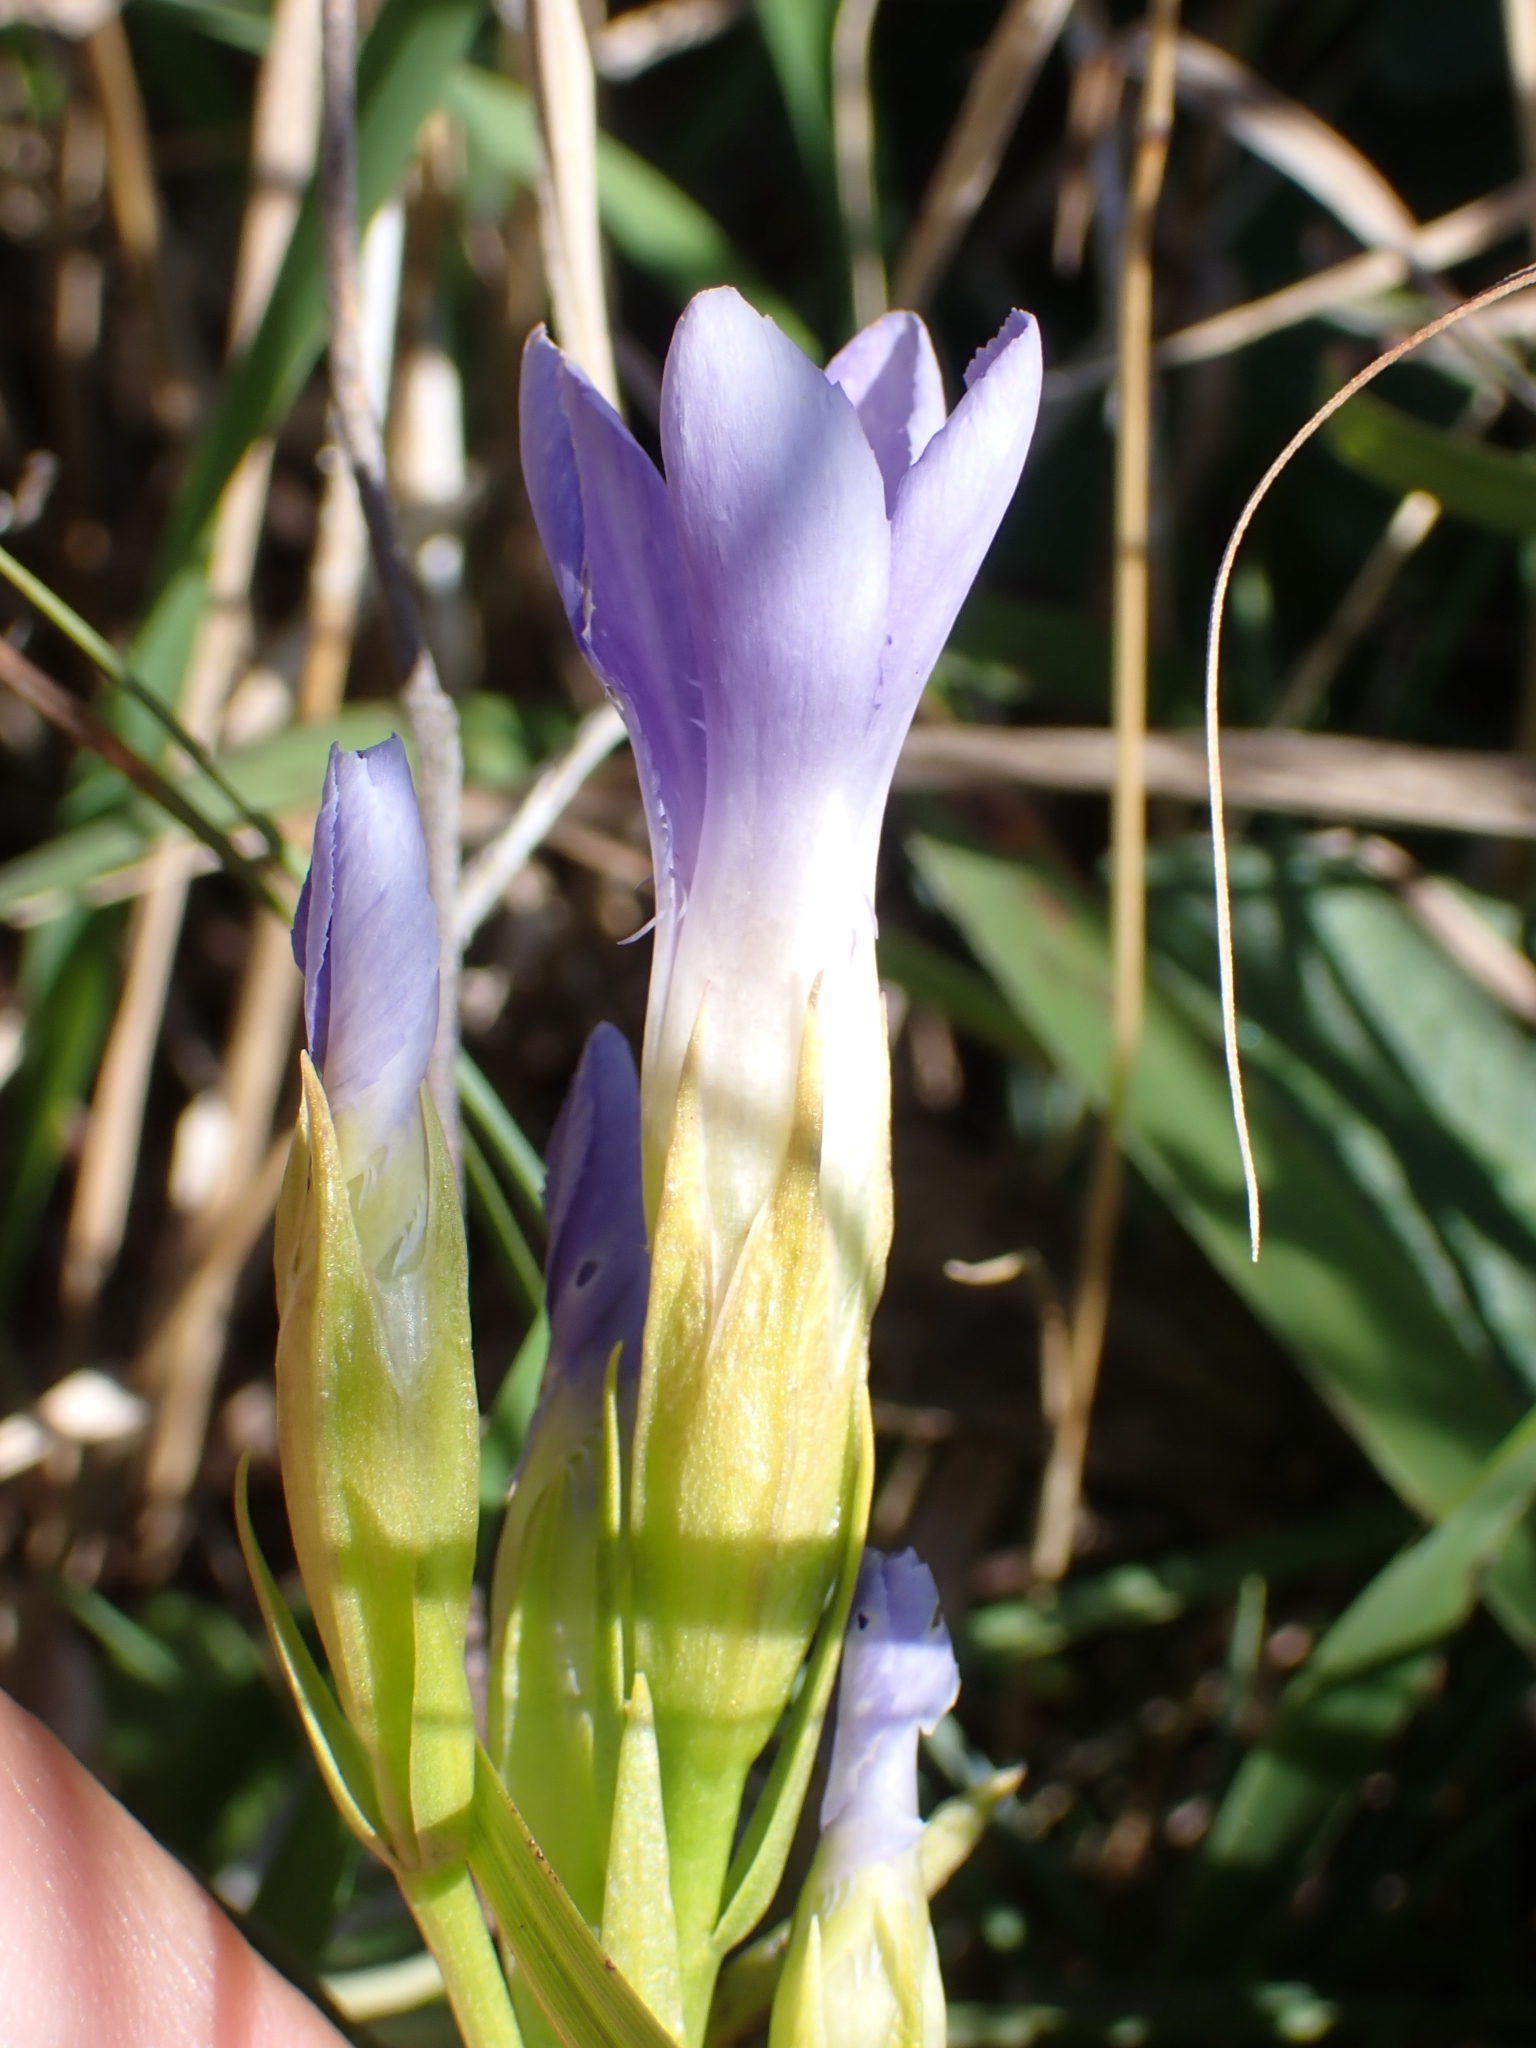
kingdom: Plantae
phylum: Tracheophyta
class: Magnoliopsida
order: Gentianales
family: Gentianaceae
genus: Gentianopsis
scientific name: Gentianopsis ciliata
